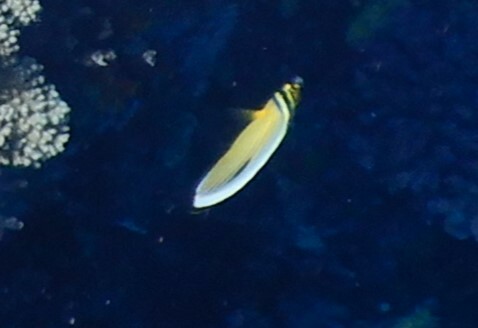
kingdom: Animalia
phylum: Chordata
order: Perciformes
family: Chaetodontidae
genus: Chaetodon
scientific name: Chaetodon austriacus
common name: Exquisite butterflyfish
